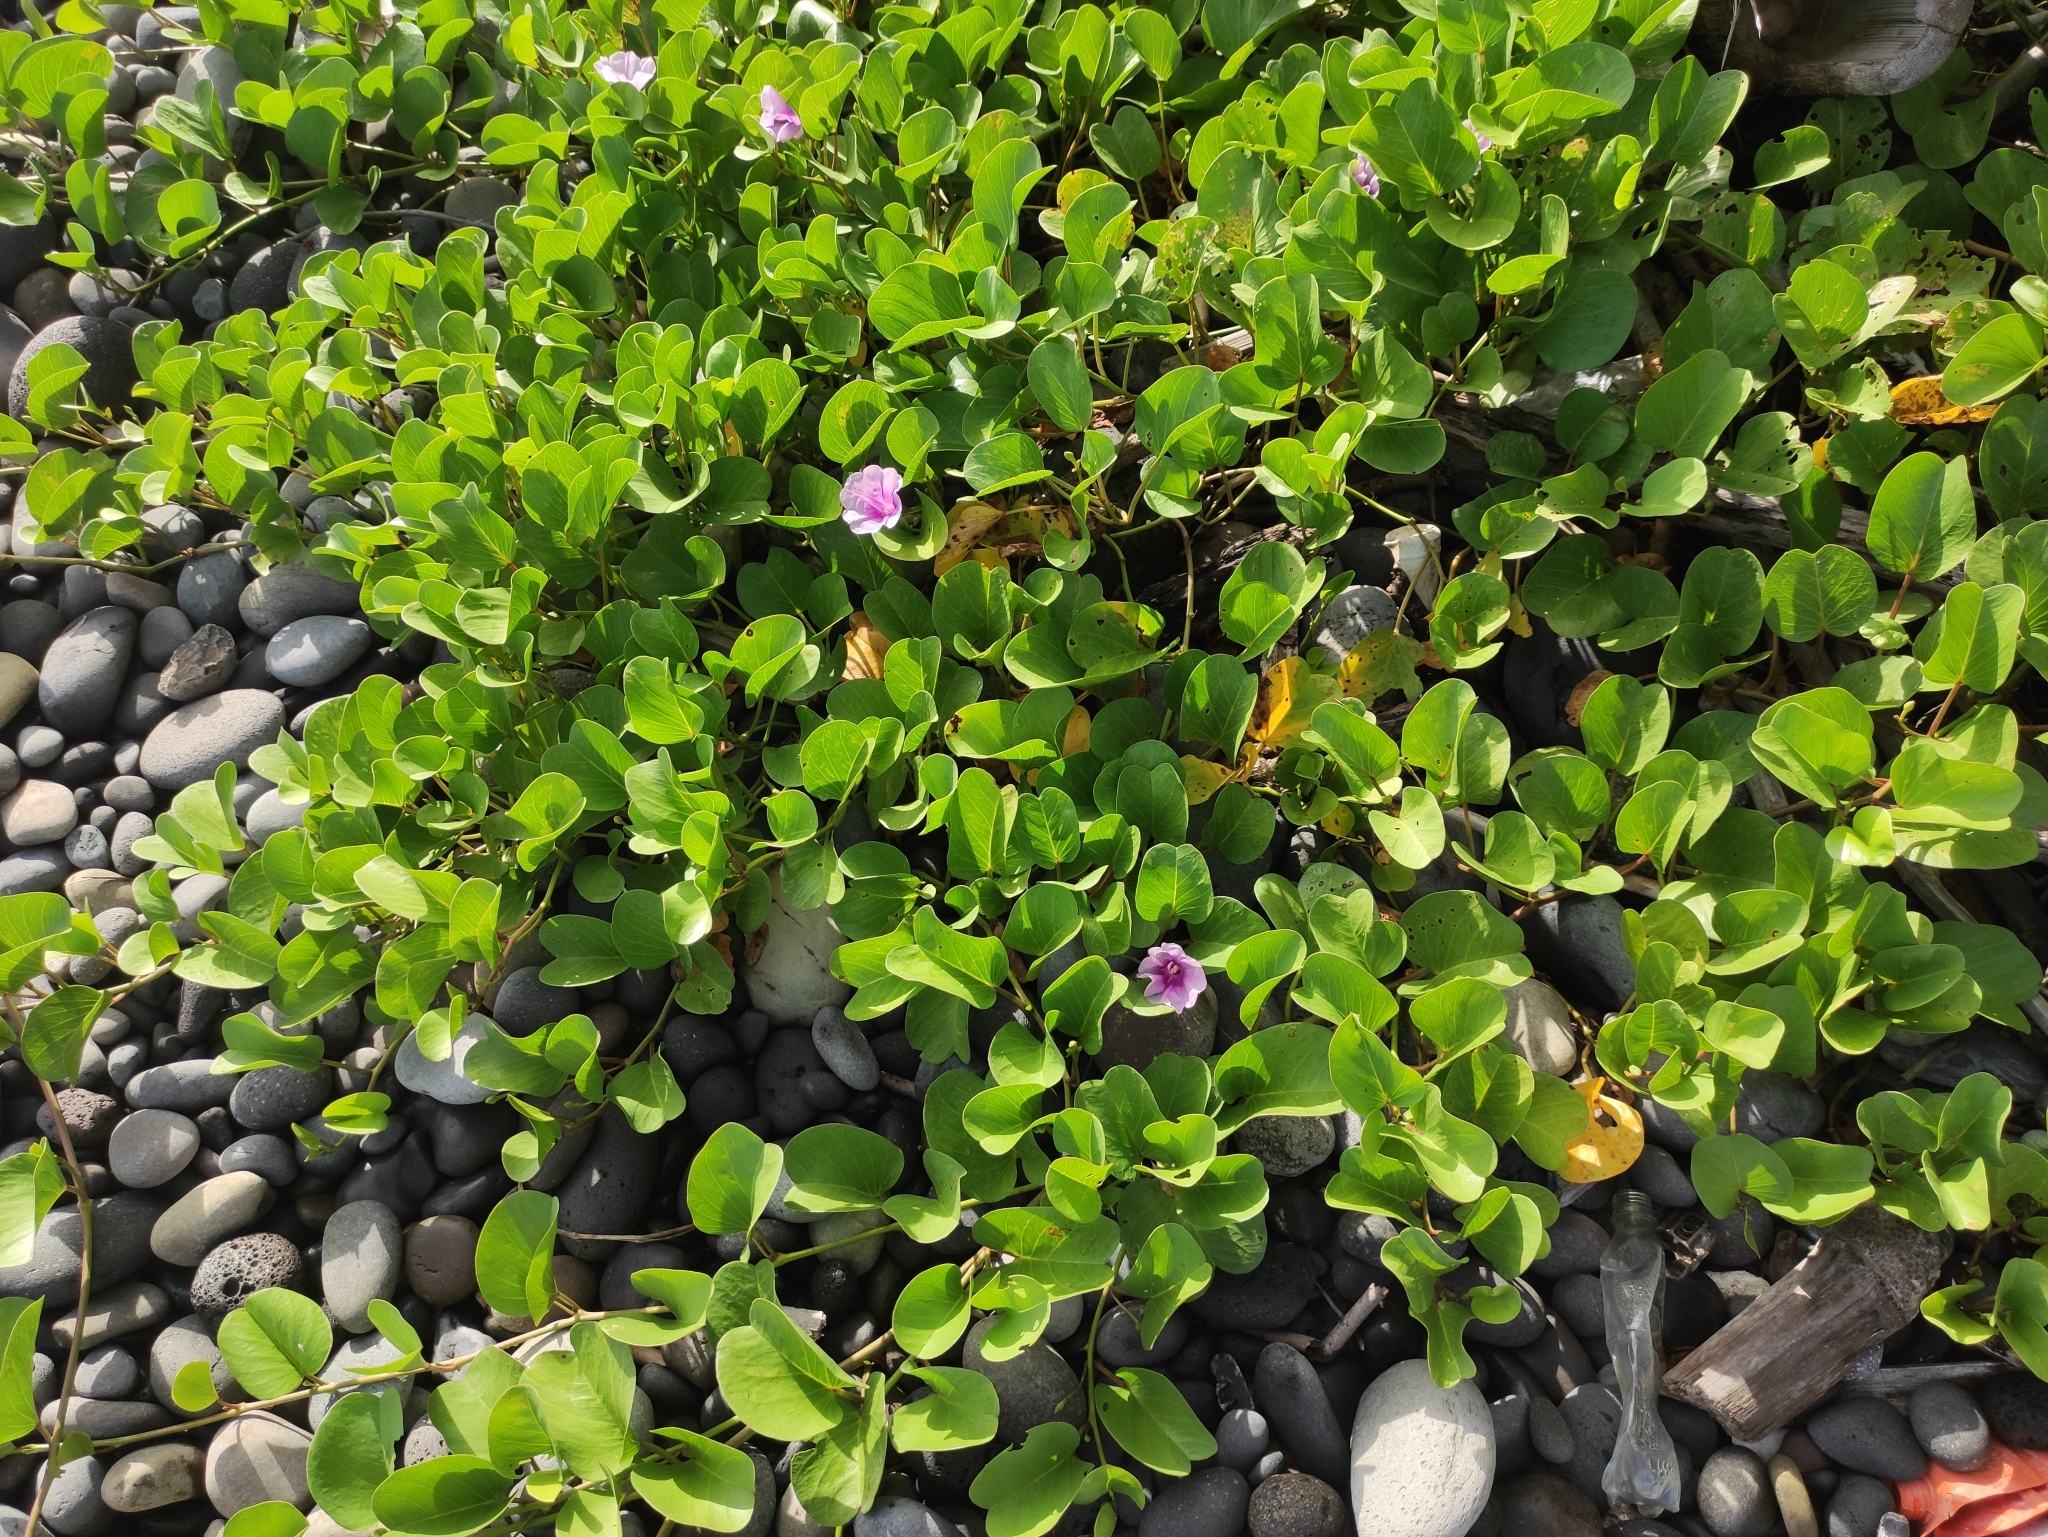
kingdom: Plantae
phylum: Tracheophyta
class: Magnoliopsida
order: Solanales
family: Convolvulaceae
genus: Ipomoea
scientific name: Ipomoea pes-caprae
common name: Beach morning glory
